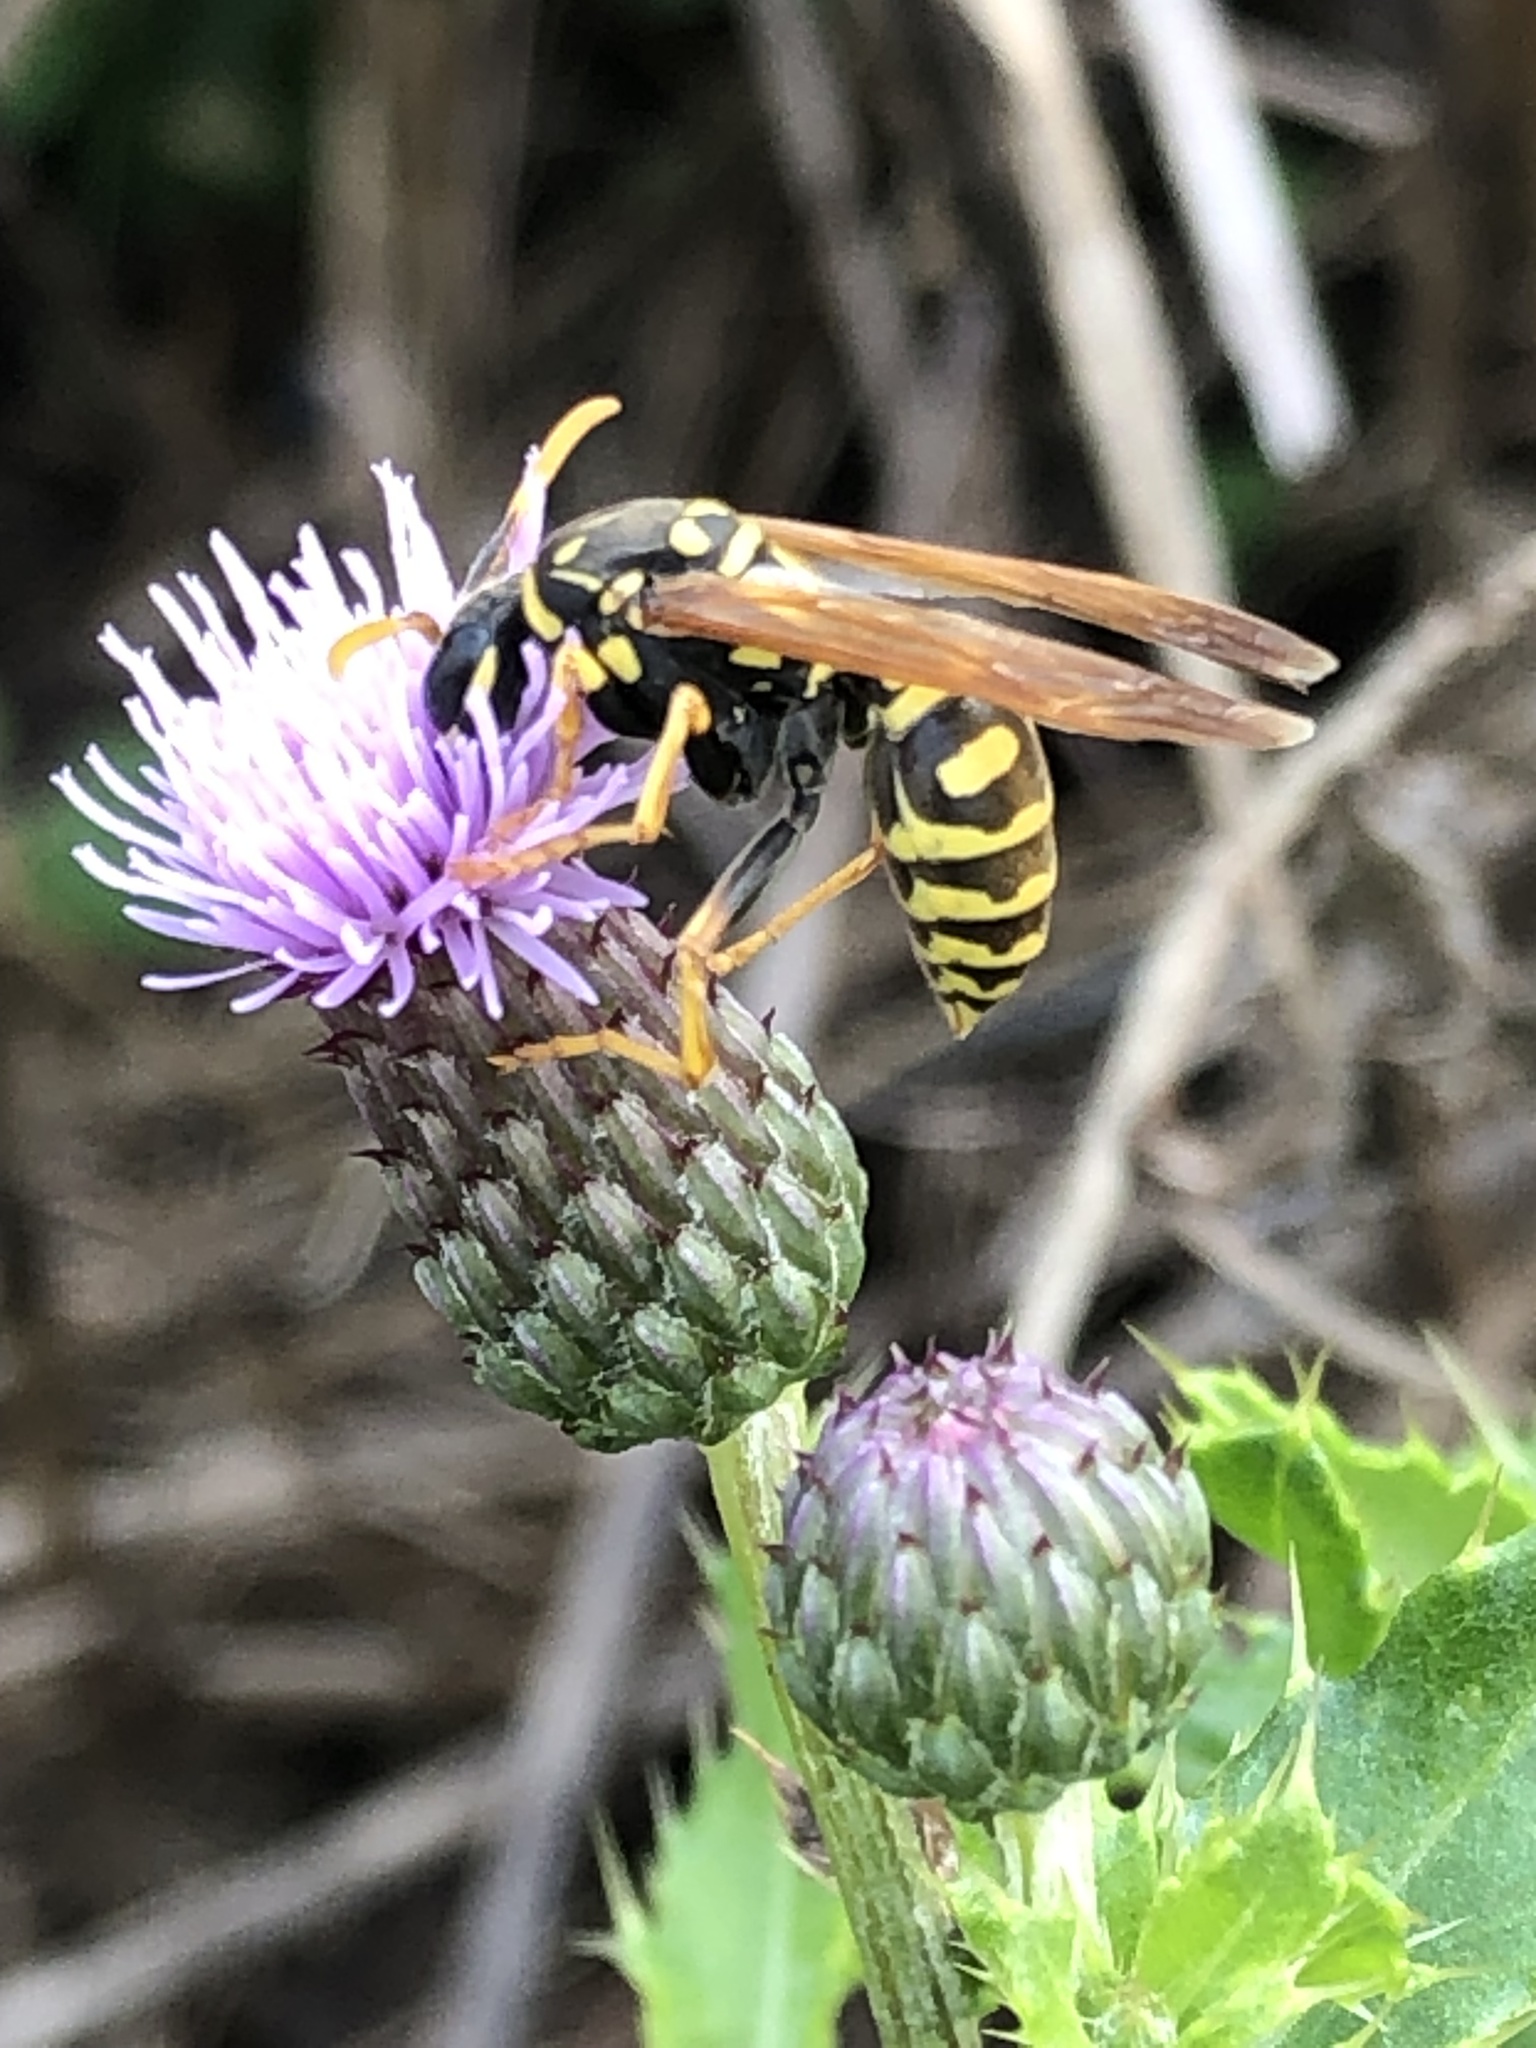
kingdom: Animalia
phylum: Arthropoda
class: Insecta
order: Hymenoptera
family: Eumenidae
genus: Polistes
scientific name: Polistes dominula
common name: Paper wasp
